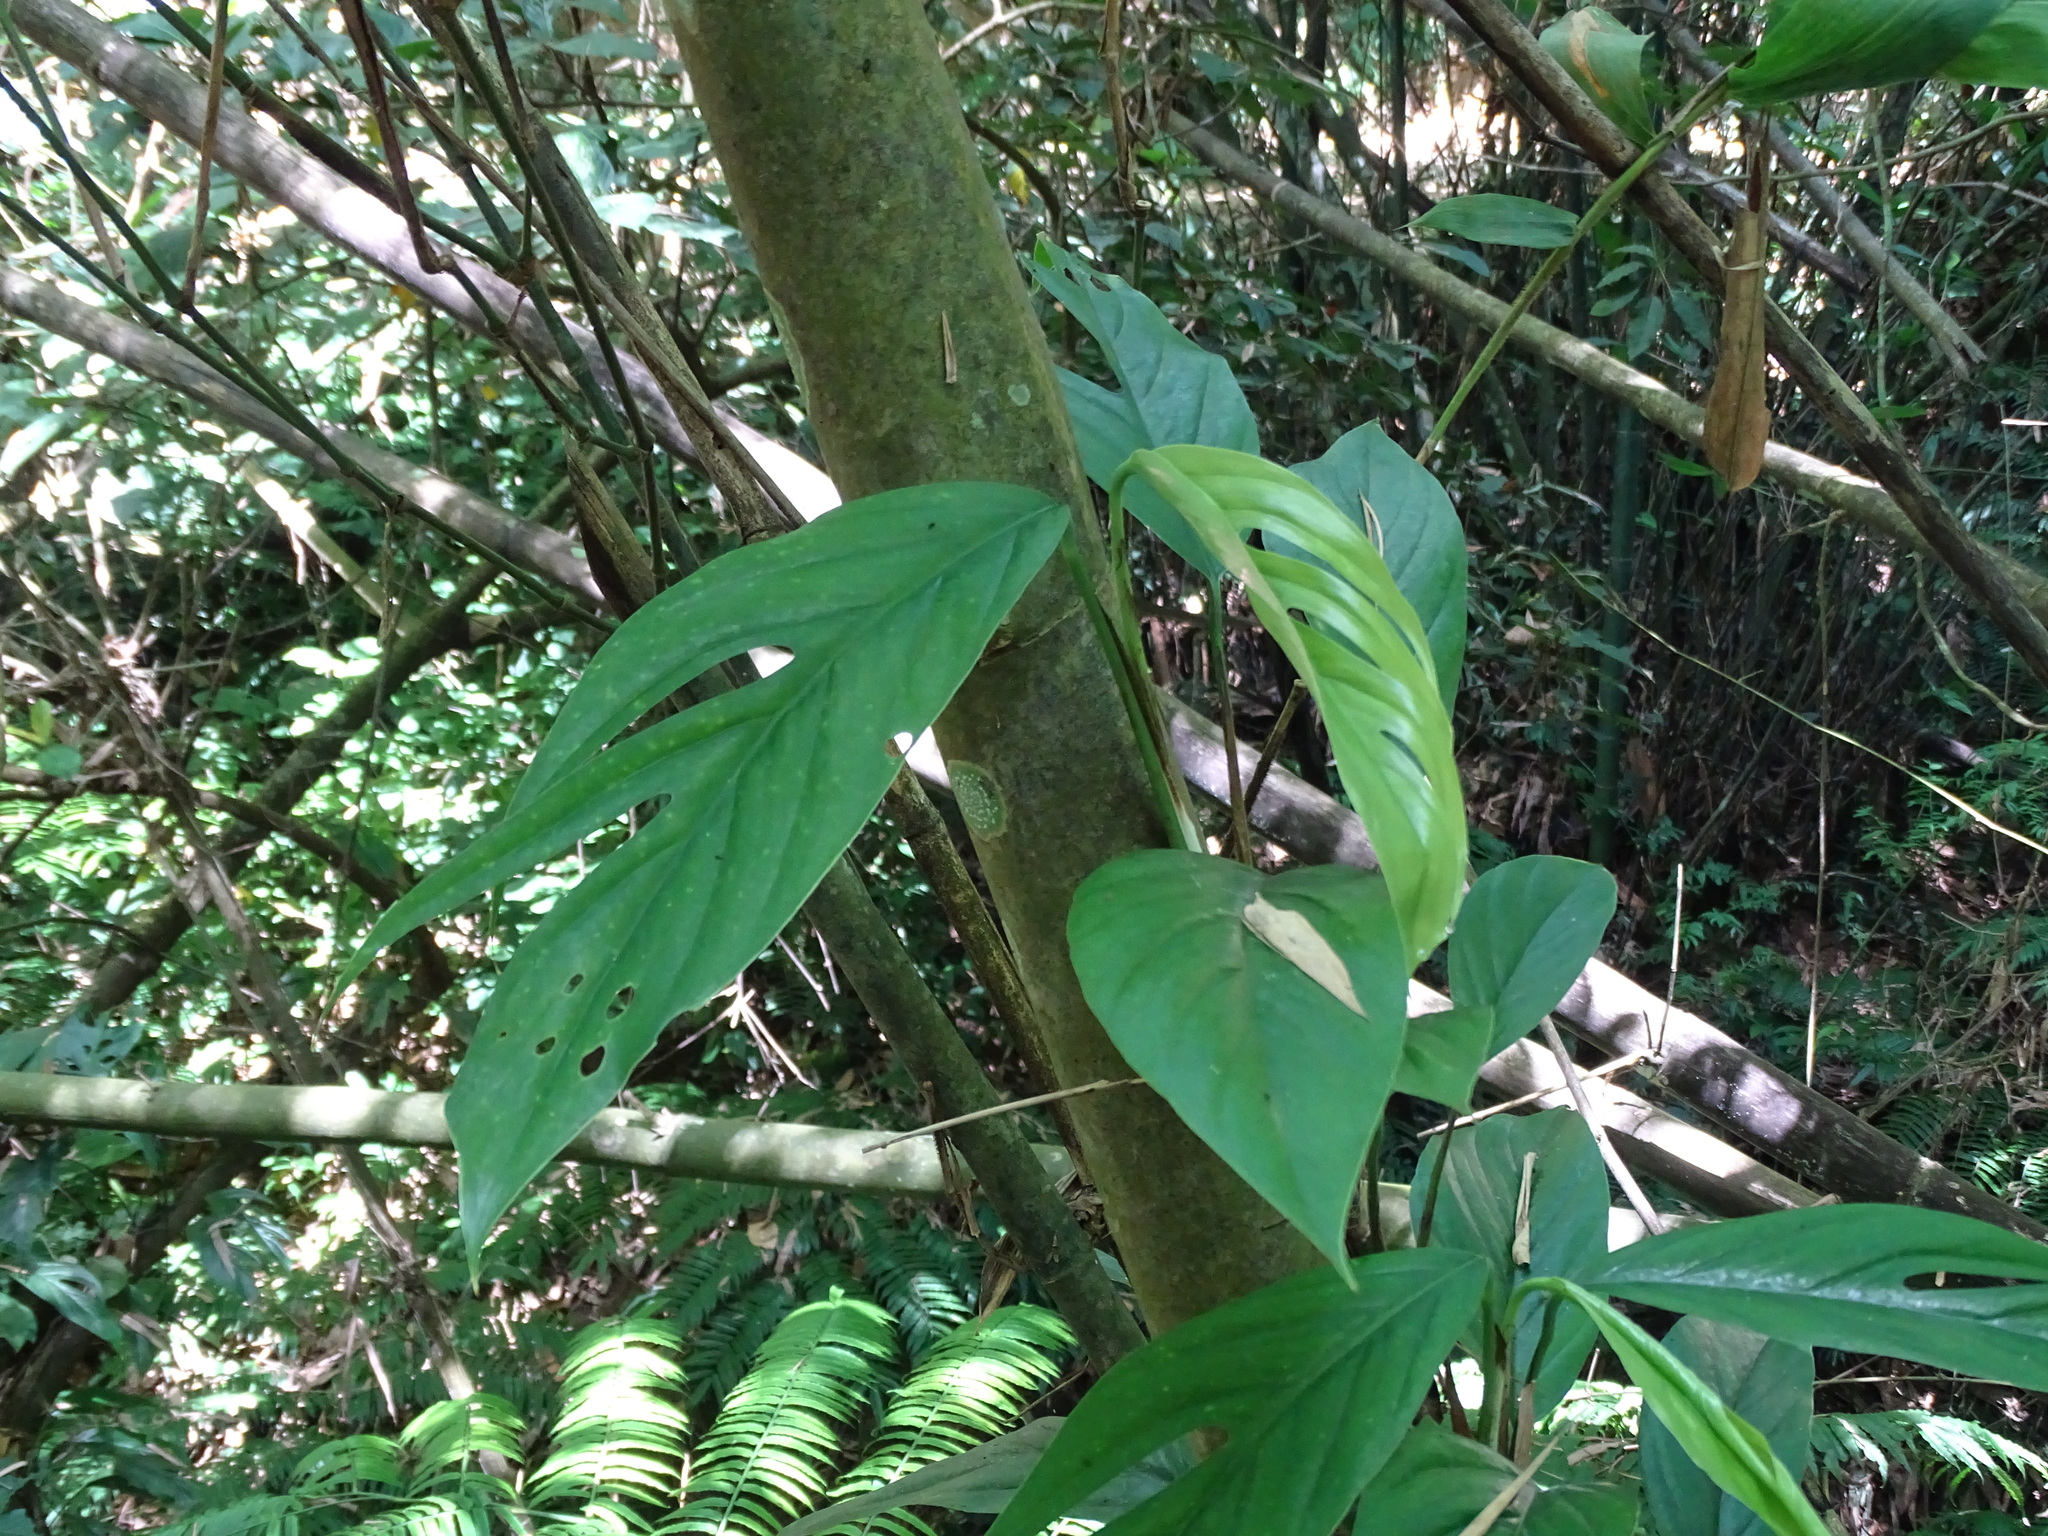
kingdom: Plantae
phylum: Tracheophyta
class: Liliopsida
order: Alismatales
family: Araceae
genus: Epipremnum
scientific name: Epipremnum pinnatum
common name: Centipede tongavine
